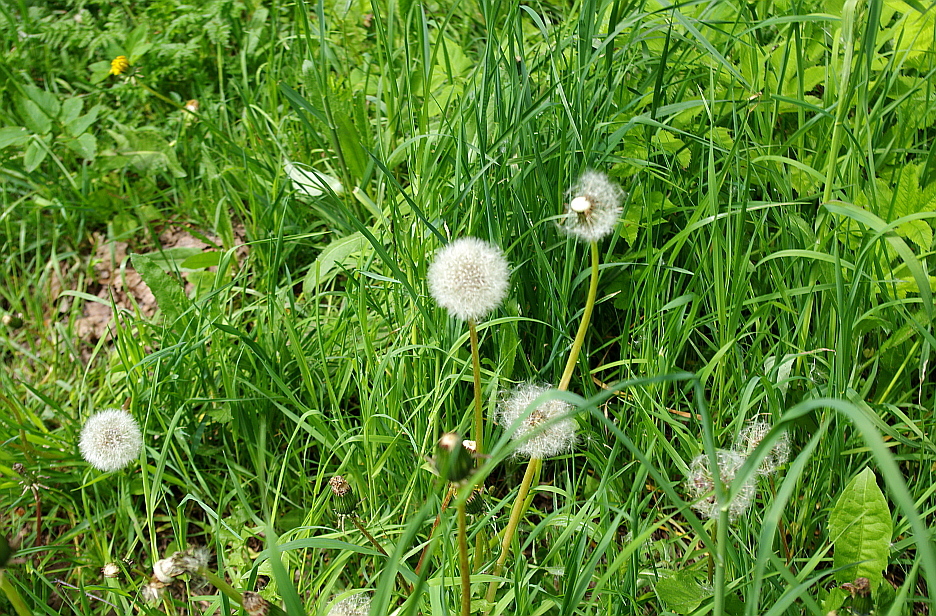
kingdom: Plantae
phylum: Tracheophyta
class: Magnoliopsida
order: Asterales
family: Asteraceae
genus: Taraxacum
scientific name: Taraxacum officinale
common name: Common dandelion
